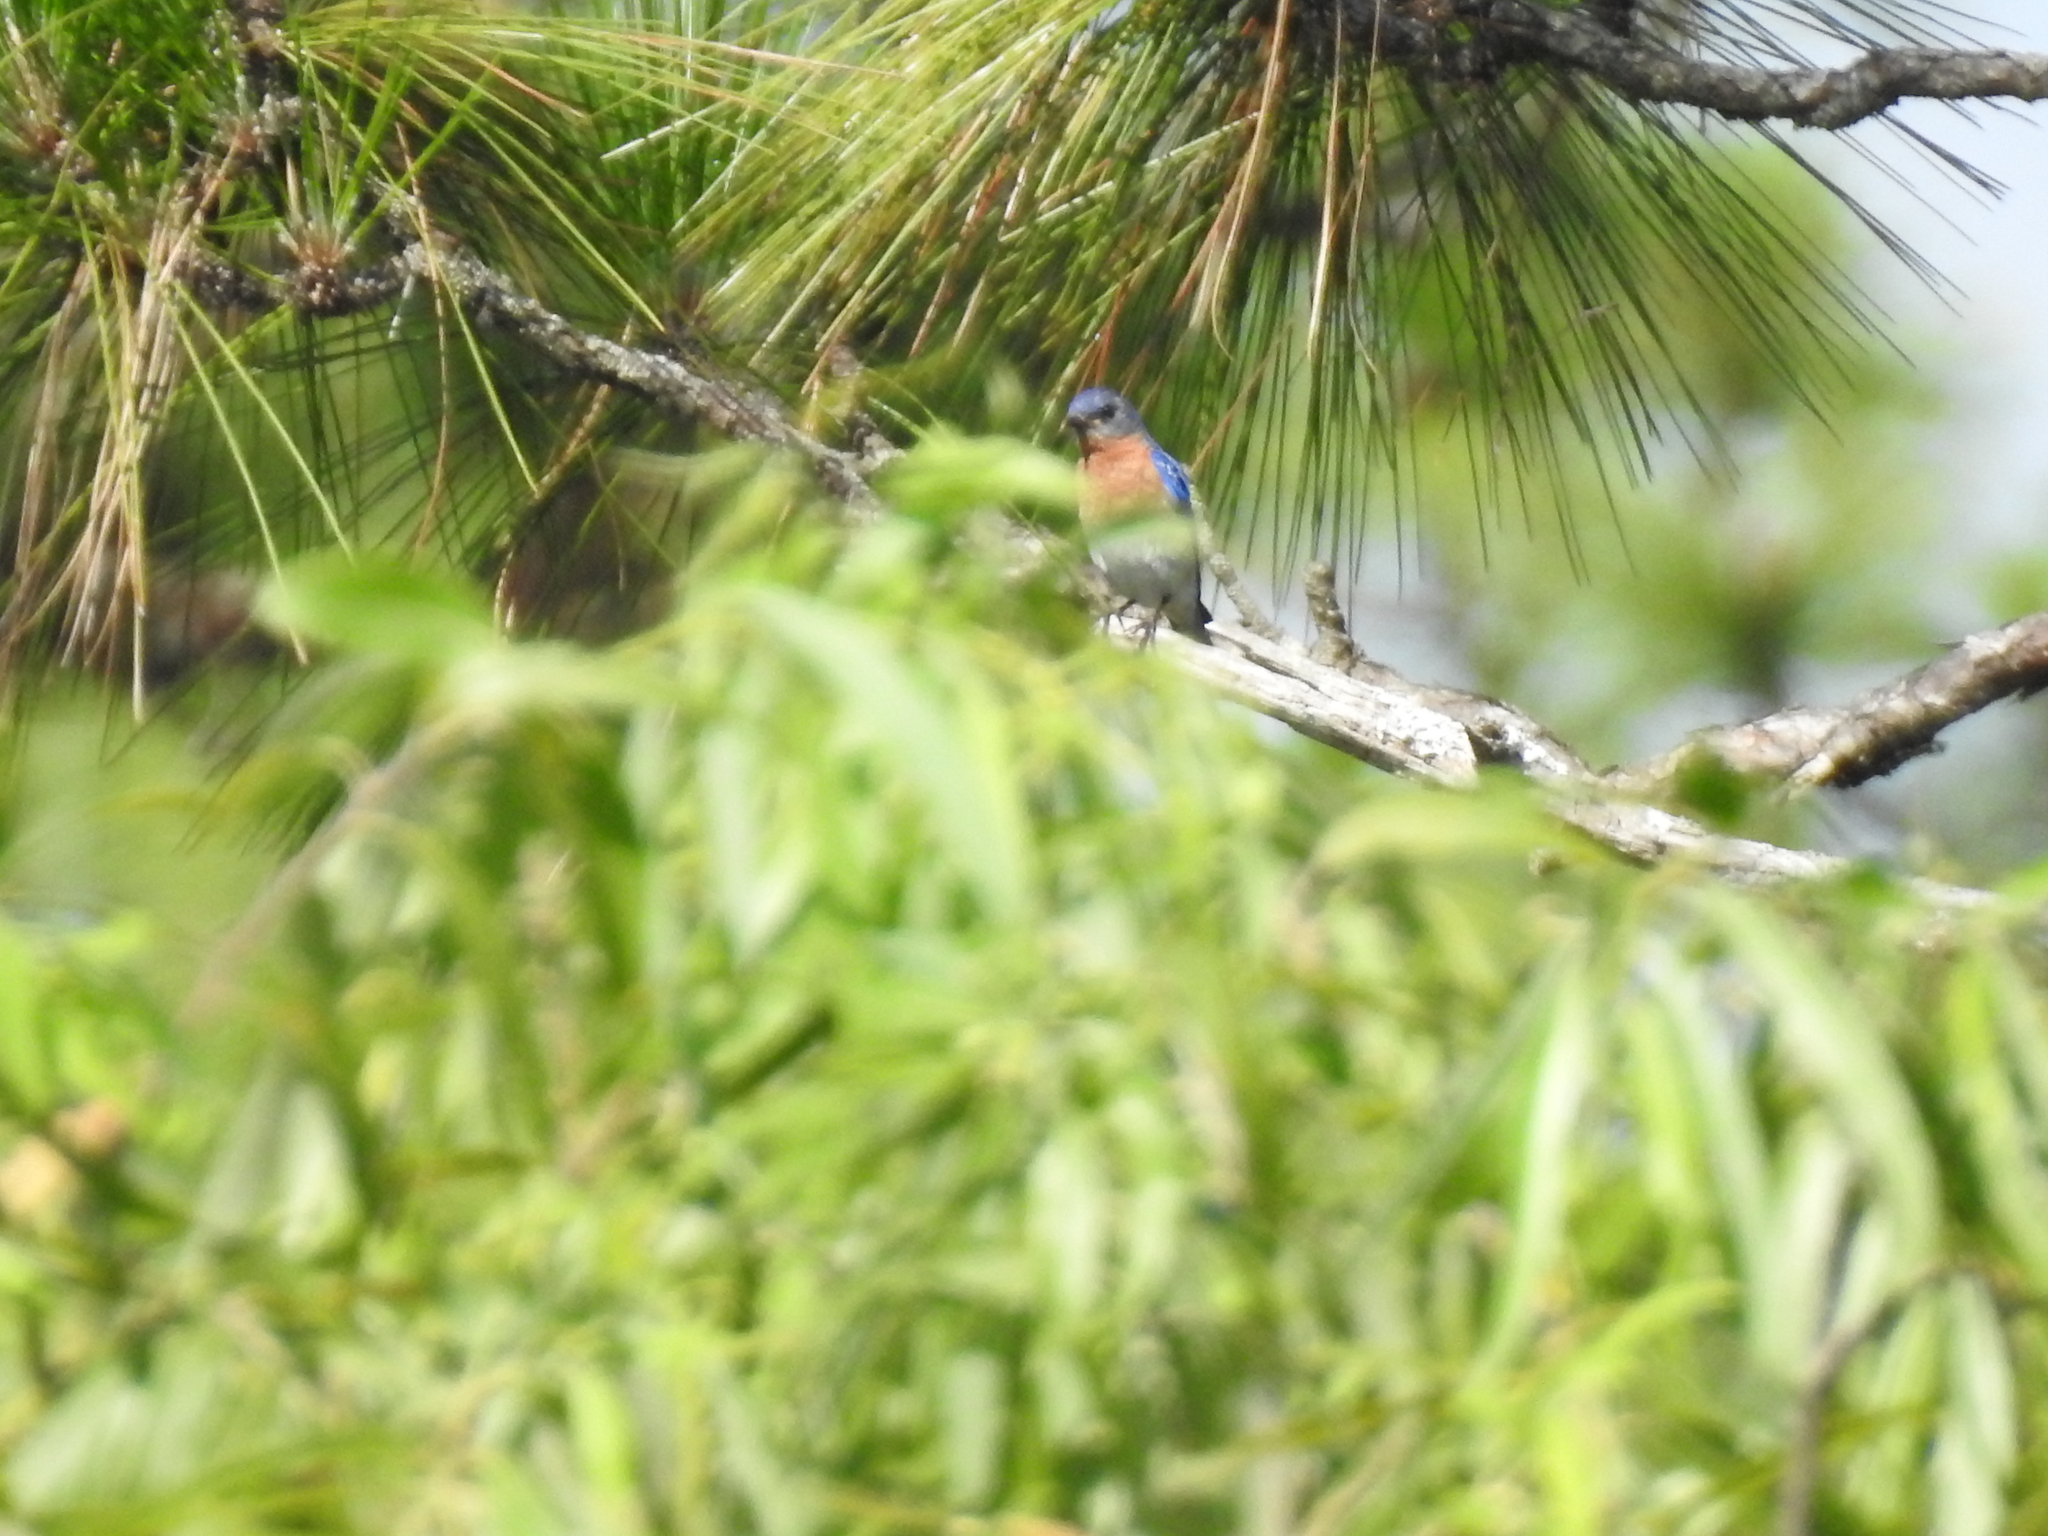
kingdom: Animalia
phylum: Chordata
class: Aves
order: Passeriformes
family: Turdidae
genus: Sialia
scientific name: Sialia sialis
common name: Eastern bluebird
